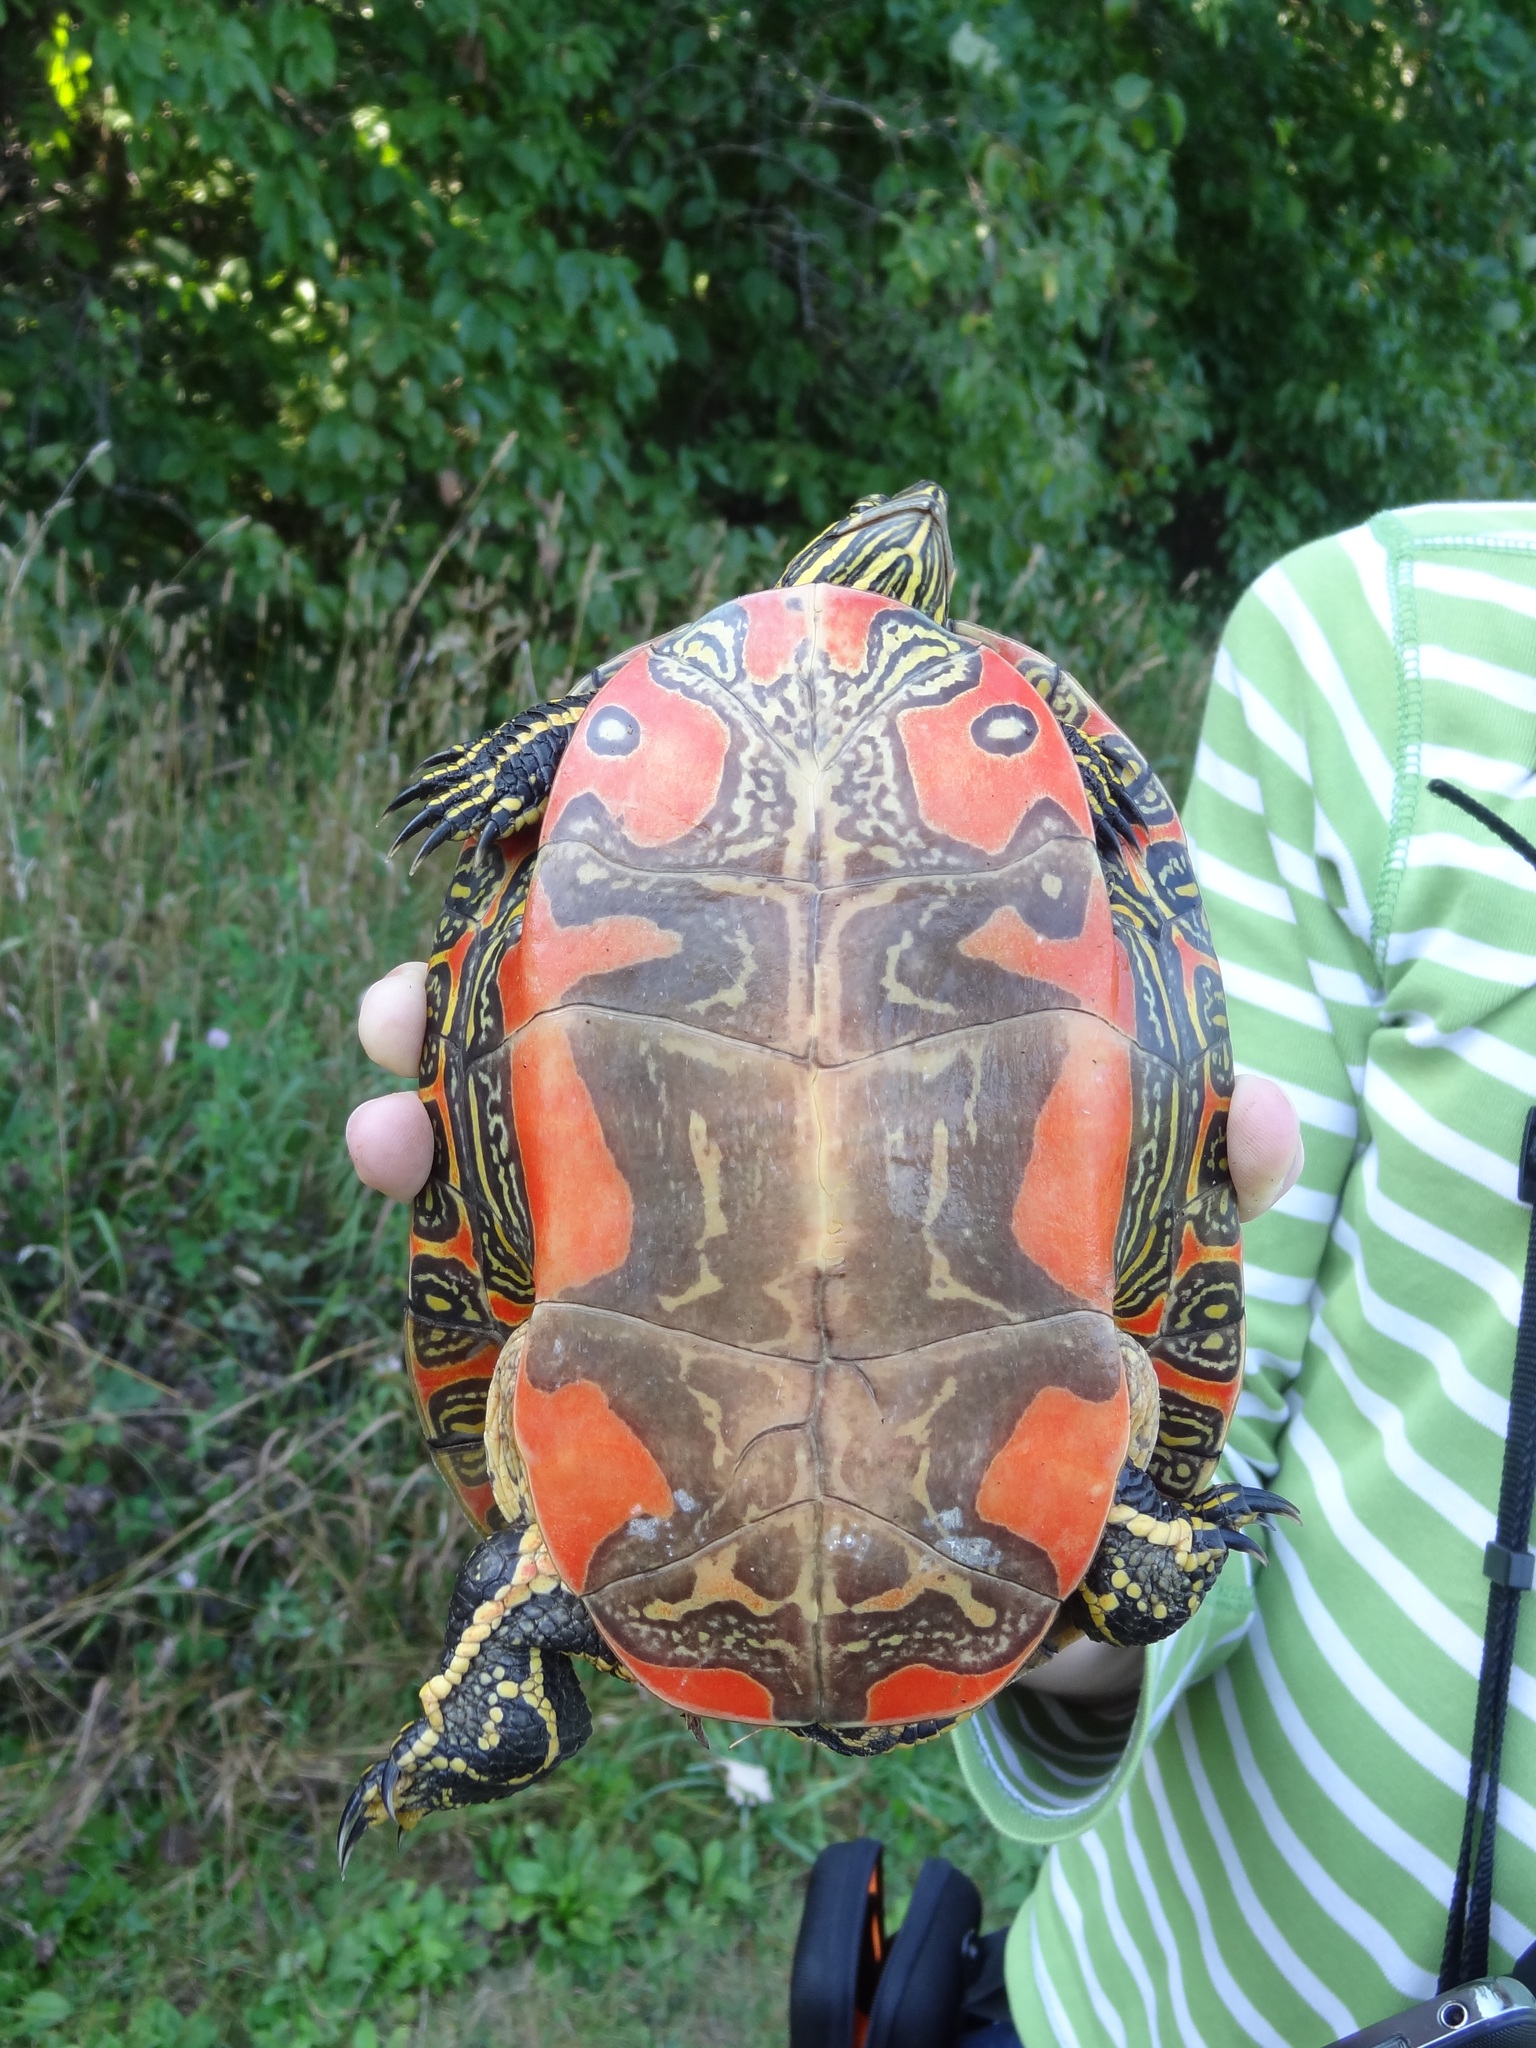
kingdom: Animalia
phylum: Chordata
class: Testudines
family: Emydidae
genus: Chrysemys
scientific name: Chrysemys picta
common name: Painted turtle
